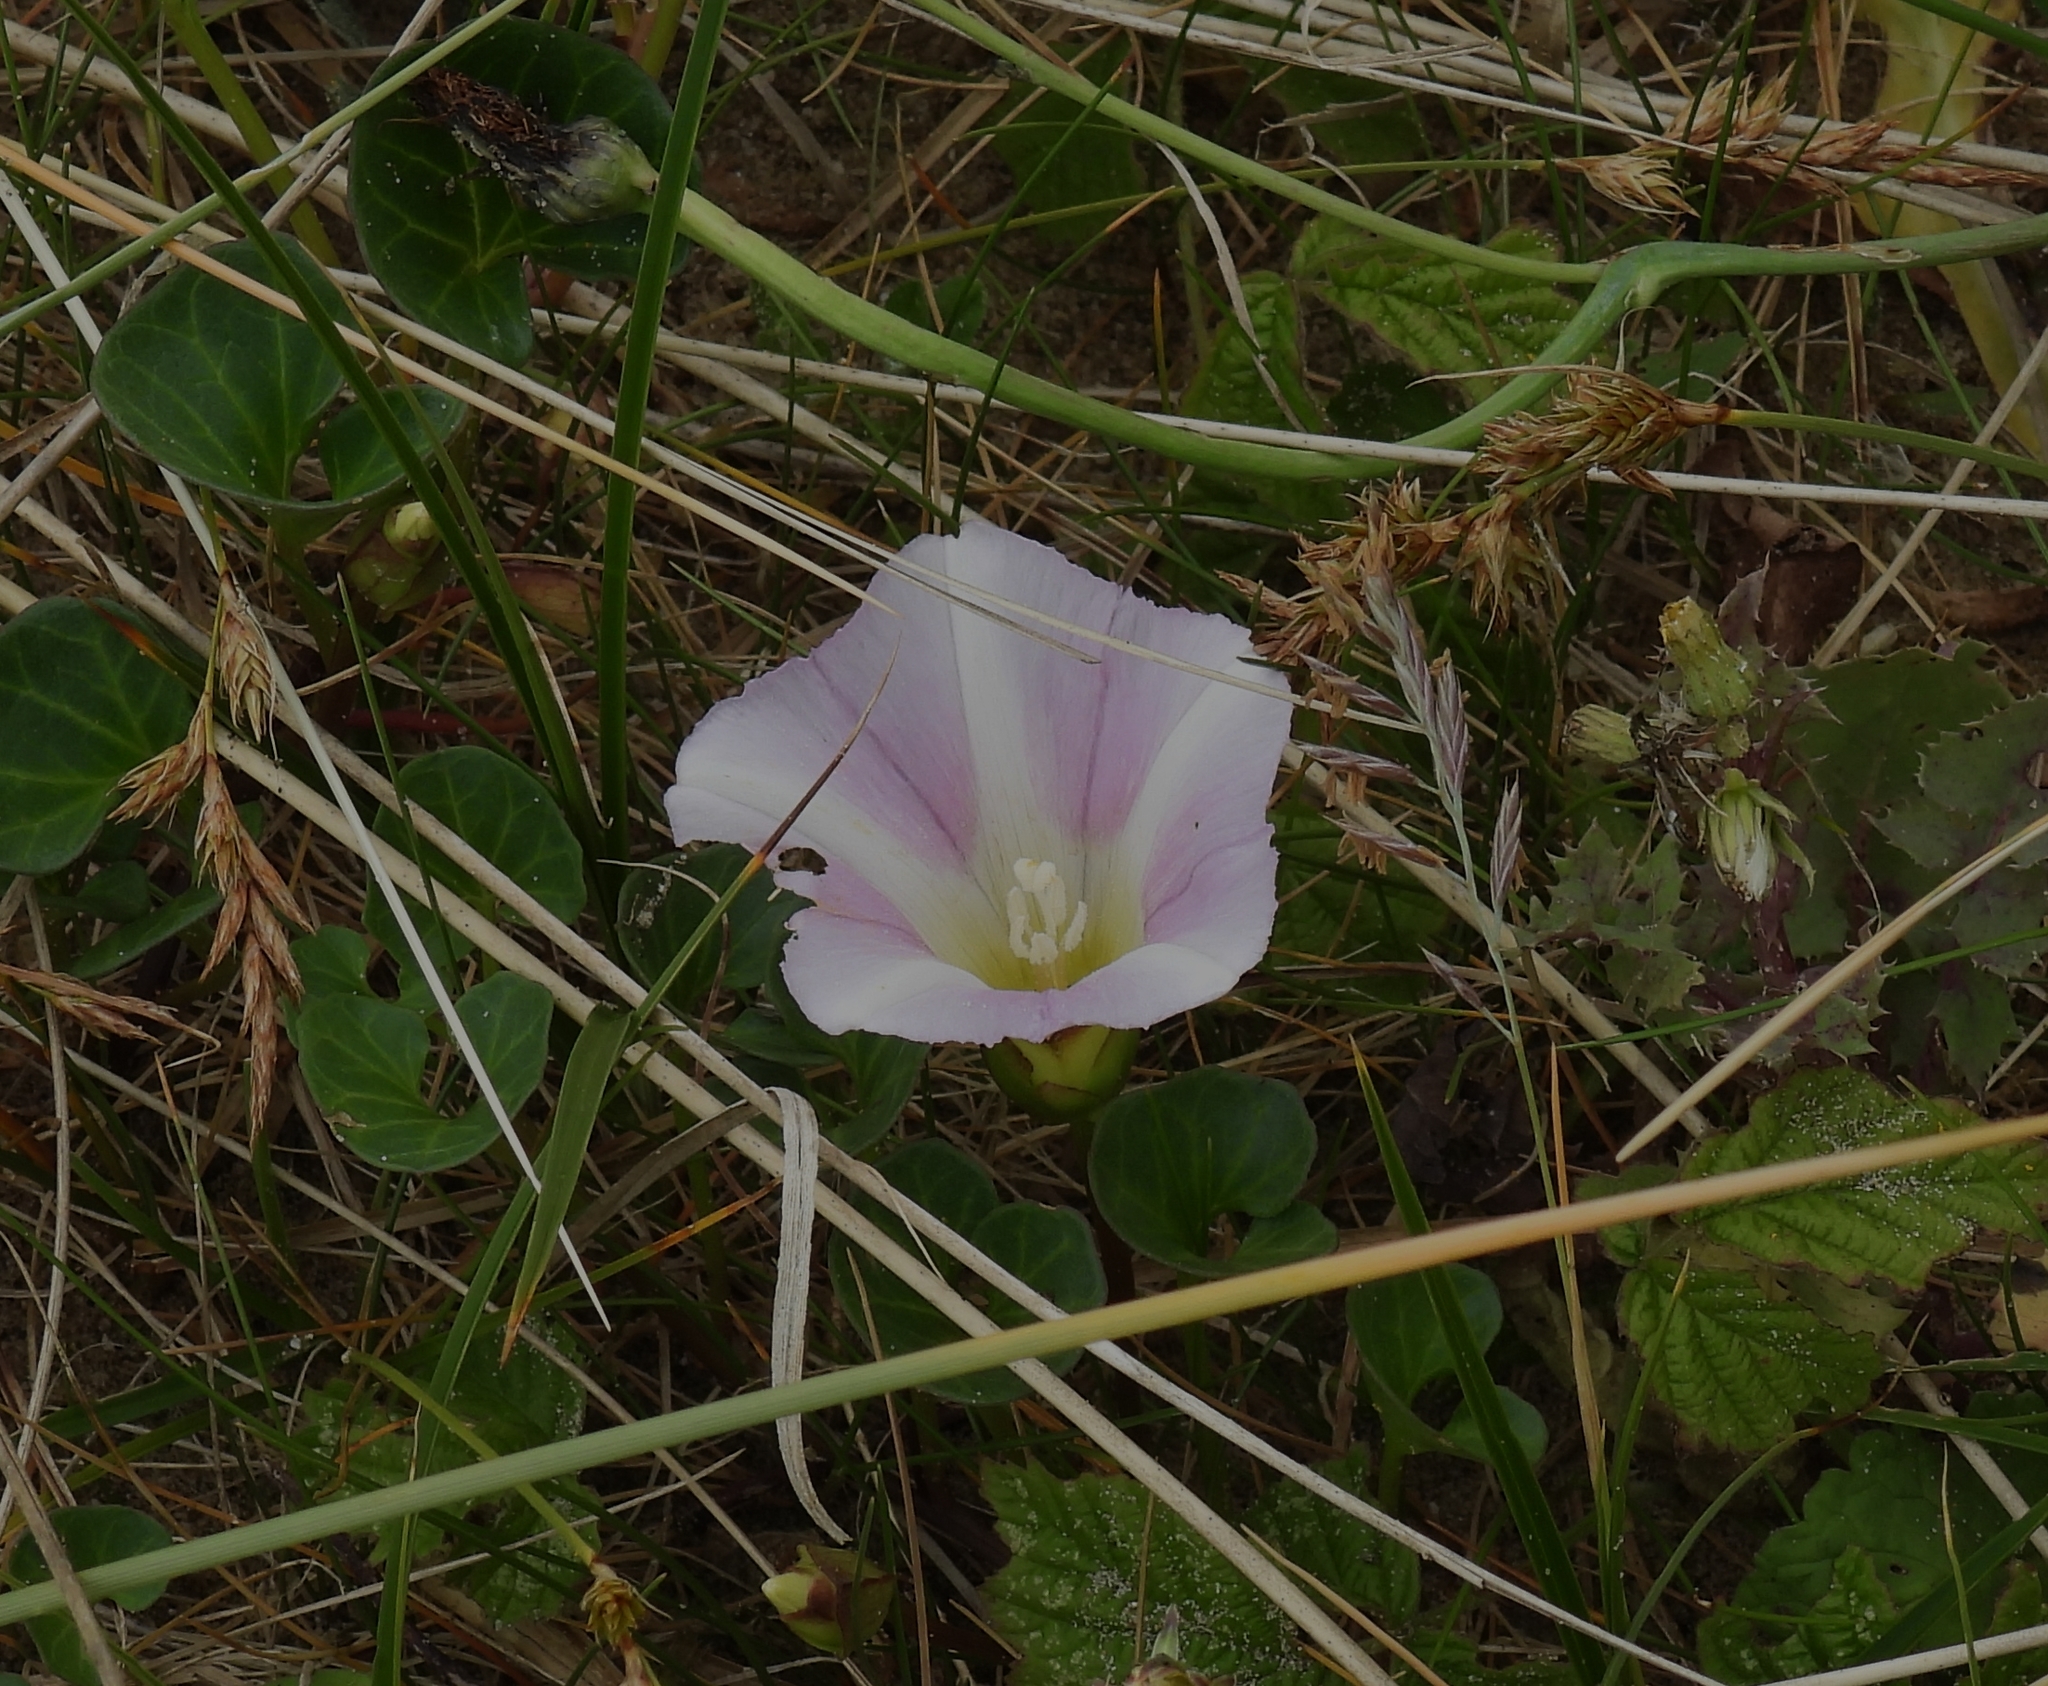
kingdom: Plantae
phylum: Tracheophyta
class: Magnoliopsida
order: Solanales
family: Convolvulaceae
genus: Calystegia
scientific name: Calystegia soldanella
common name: Sea bindweed
